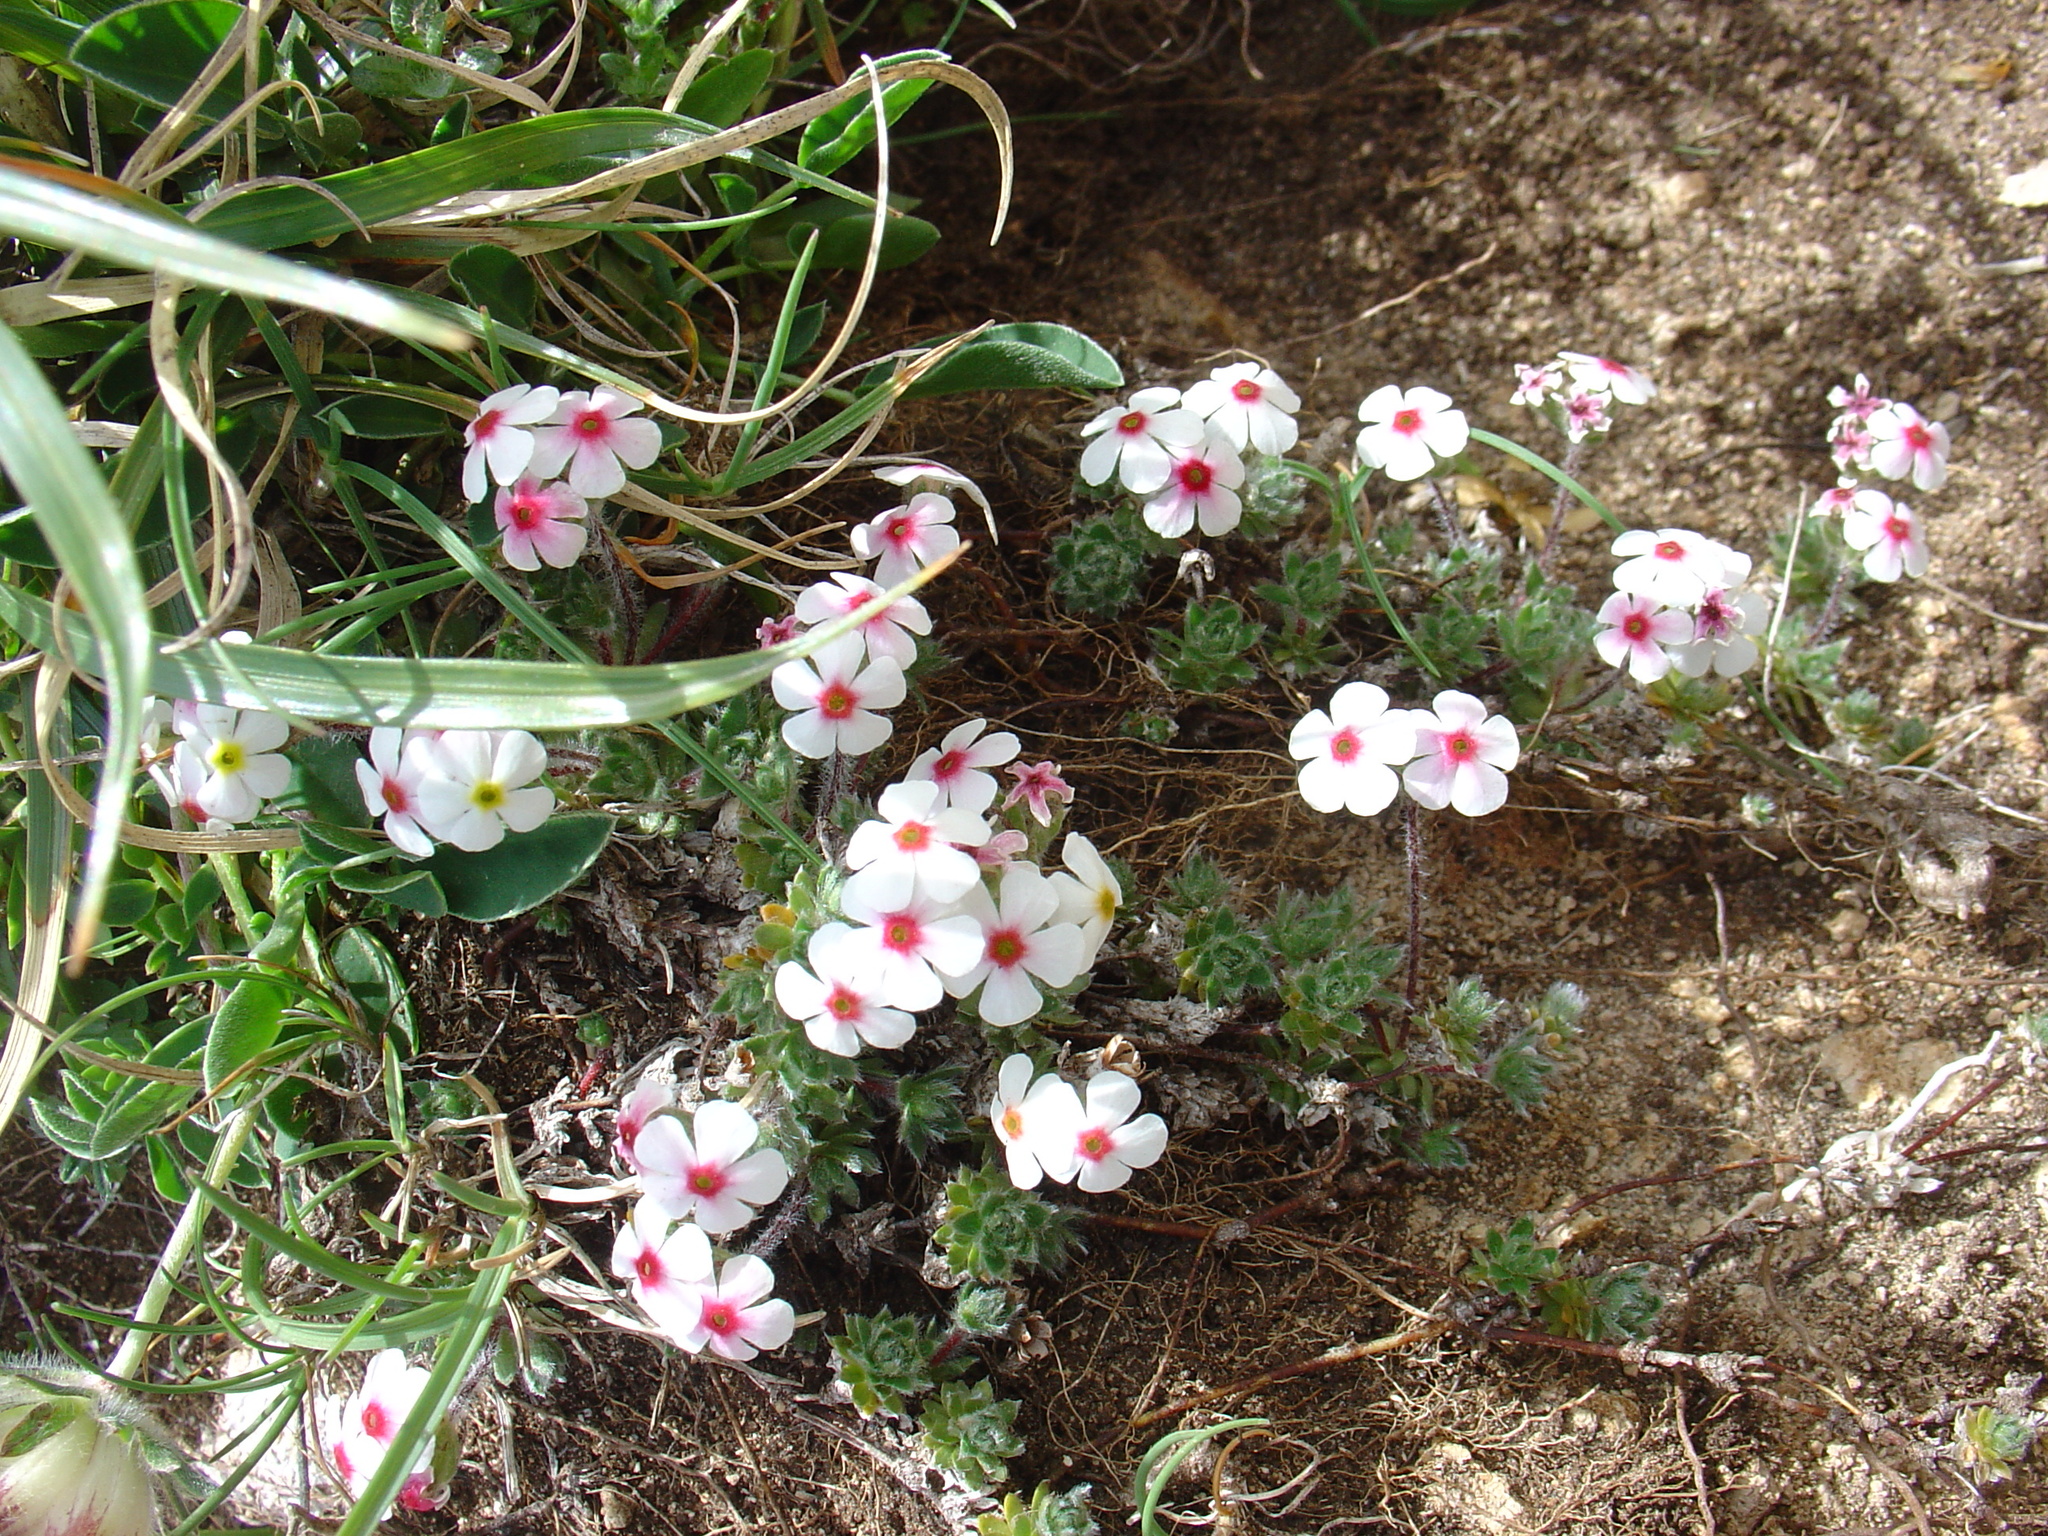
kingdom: Plantae
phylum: Tracheophyta
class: Magnoliopsida
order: Ericales
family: Primulaceae
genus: Androsace
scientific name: Androsace villosa
